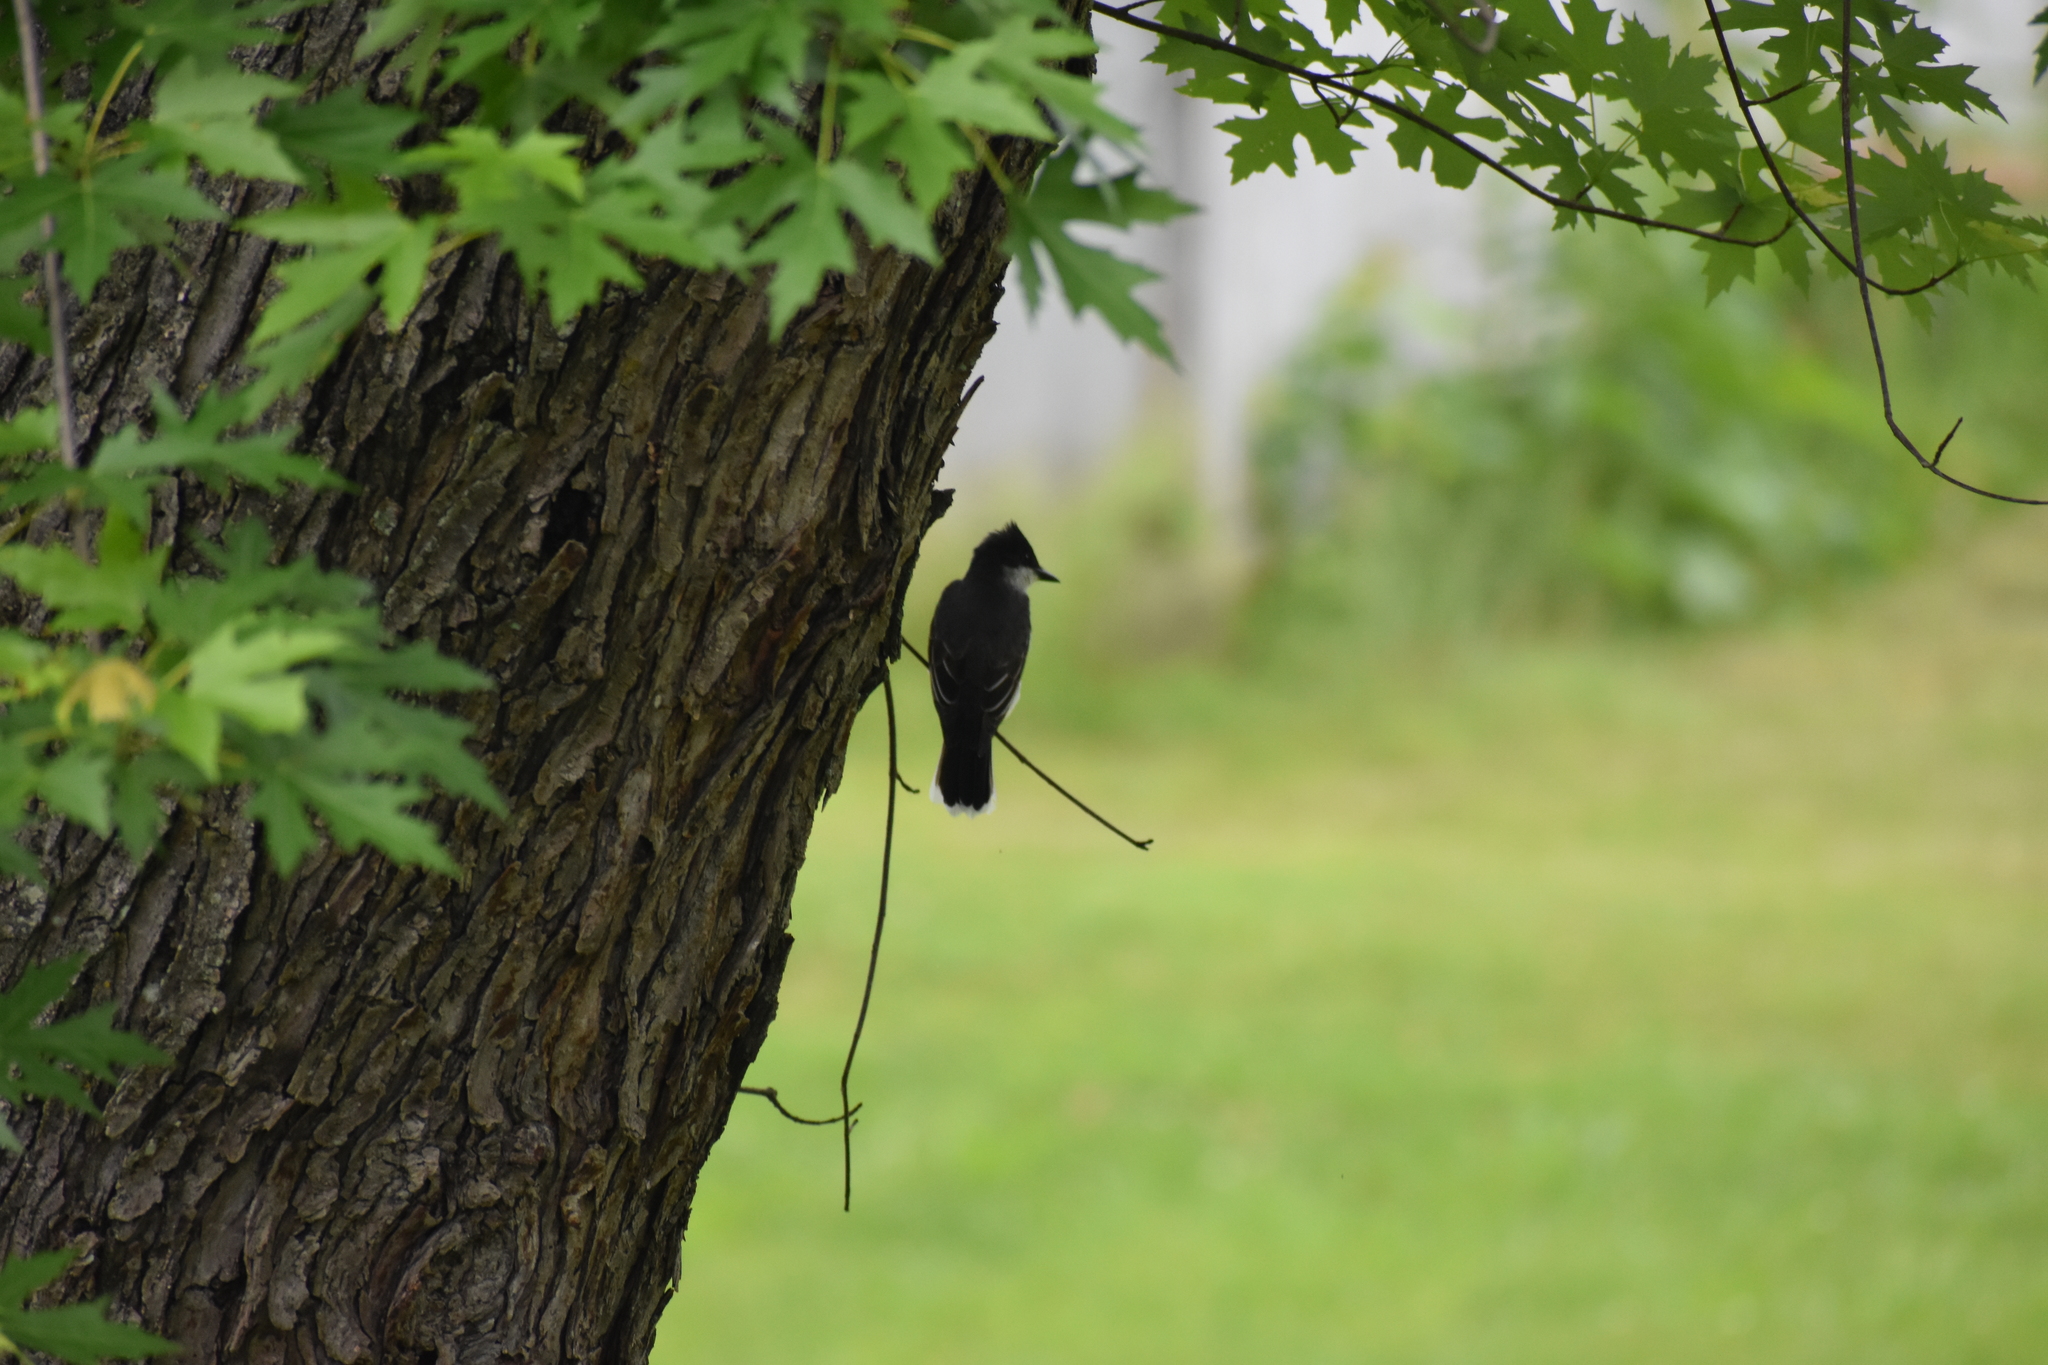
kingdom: Animalia
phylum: Chordata
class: Aves
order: Passeriformes
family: Tyrannidae
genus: Tyrannus
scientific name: Tyrannus tyrannus
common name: Eastern kingbird
